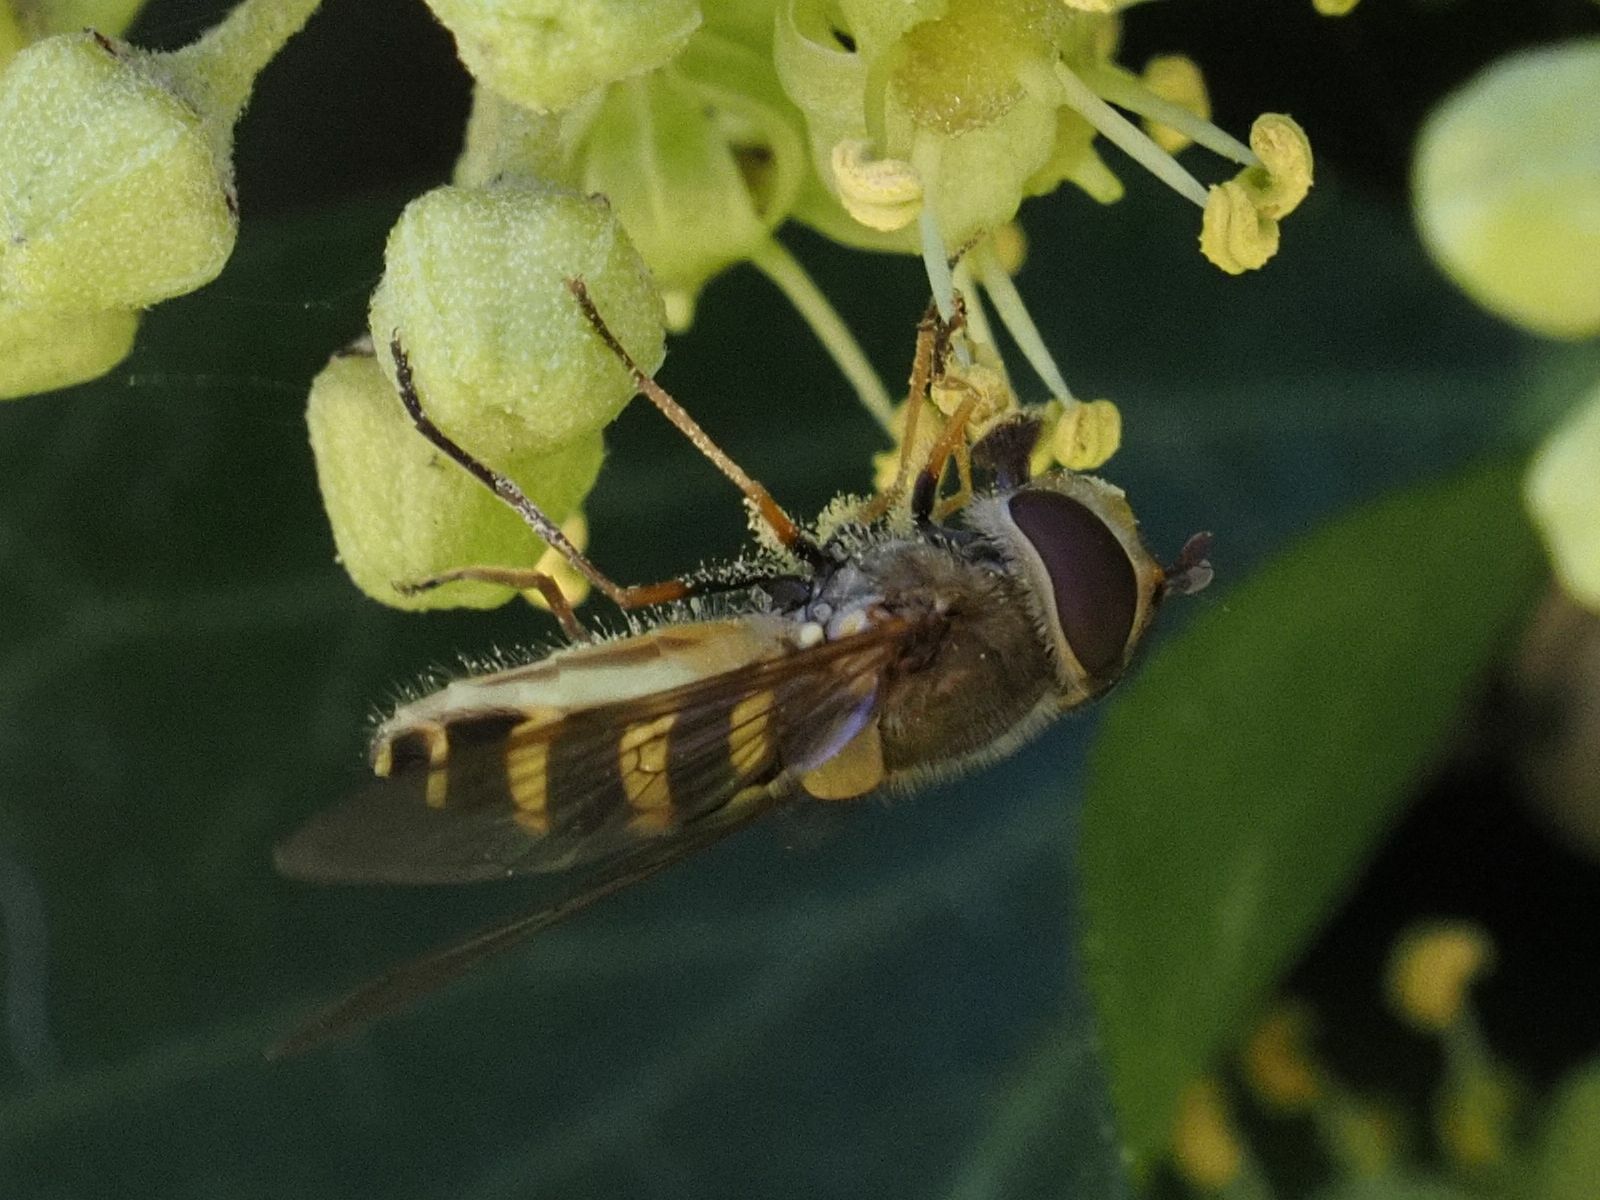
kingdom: Animalia
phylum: Arthropoda
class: Insecta
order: Diptera
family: Syrphidae
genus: Syrphus
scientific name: Syrphus
